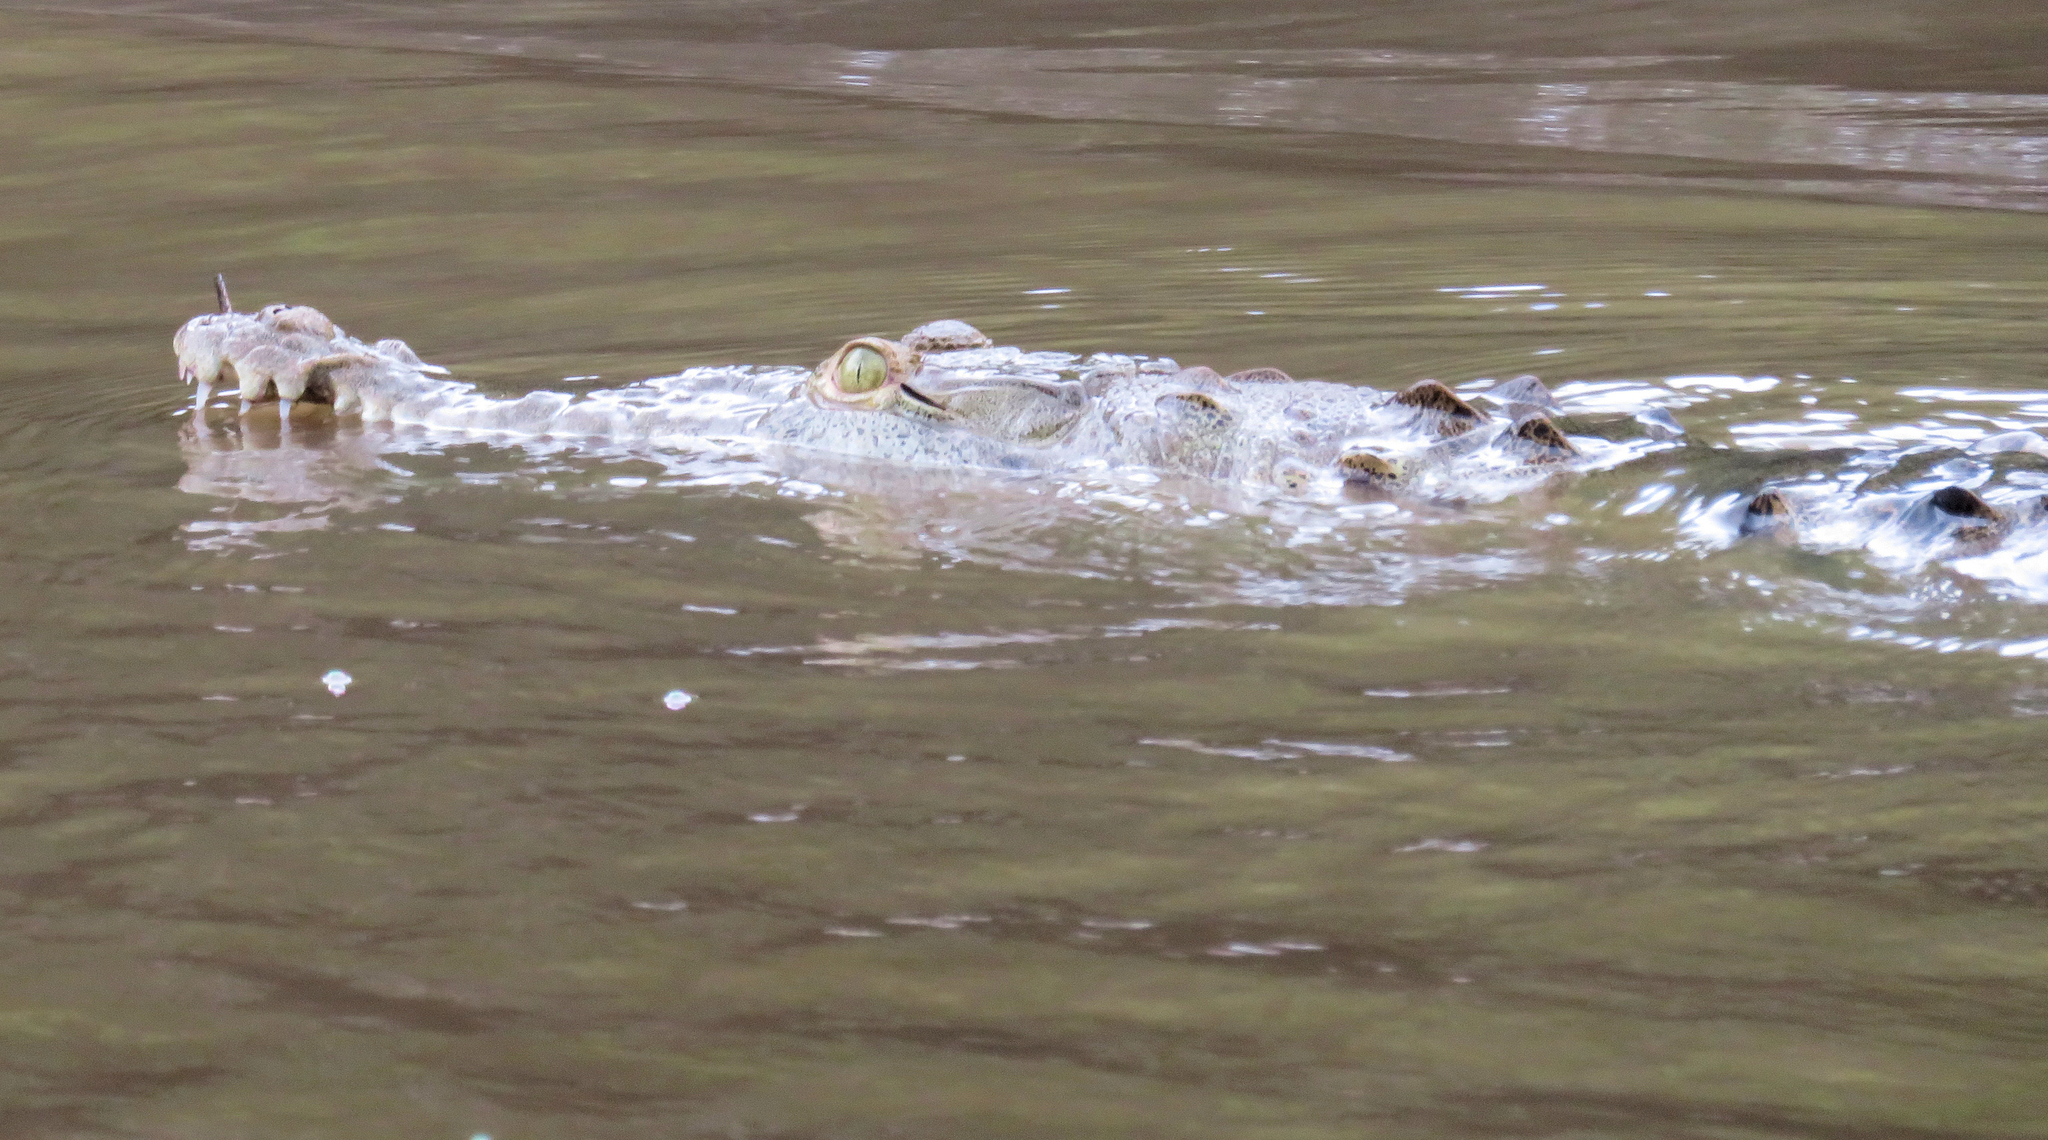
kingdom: Animalia
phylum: Chordata
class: Crocodylia
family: Crocodylidae
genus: Crocodylus
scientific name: Crocodylus acutus
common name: American crocodile
